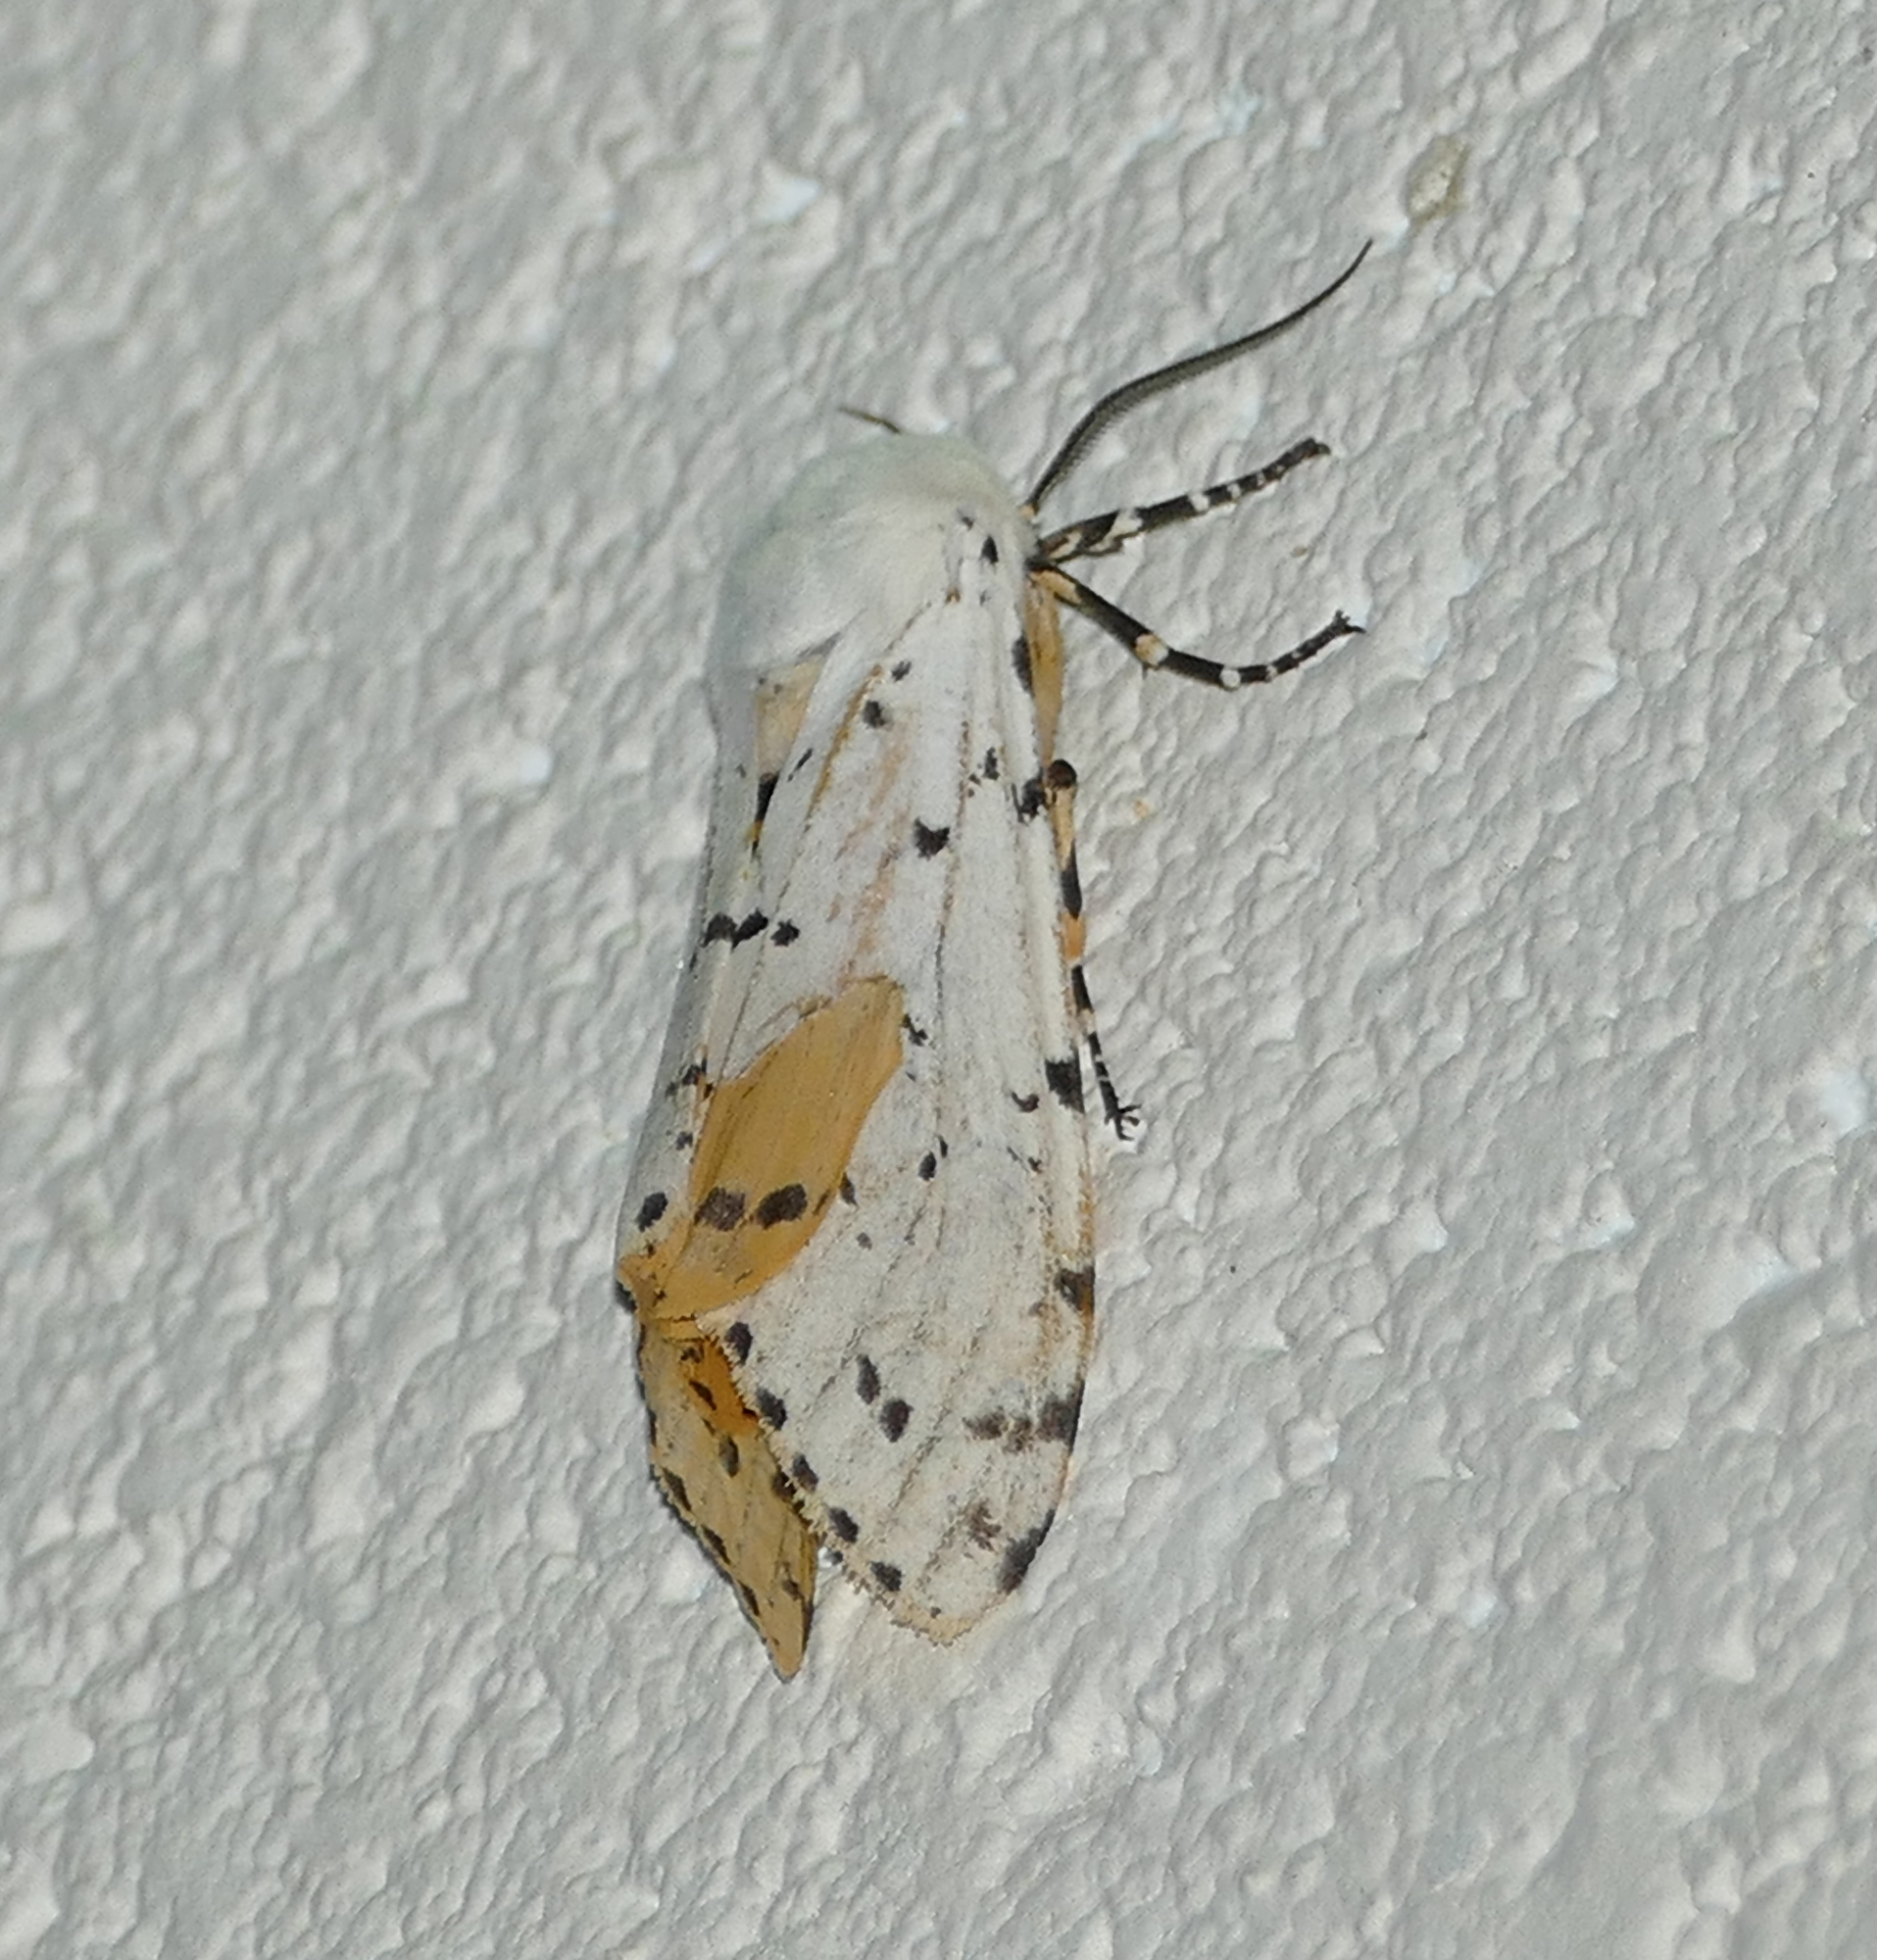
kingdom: Animalia
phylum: Arthropoda
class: Insecta
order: Lepidoptera
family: Erebidae
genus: Estigmene
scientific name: Estigmene acrea
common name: Salt marsh moth
